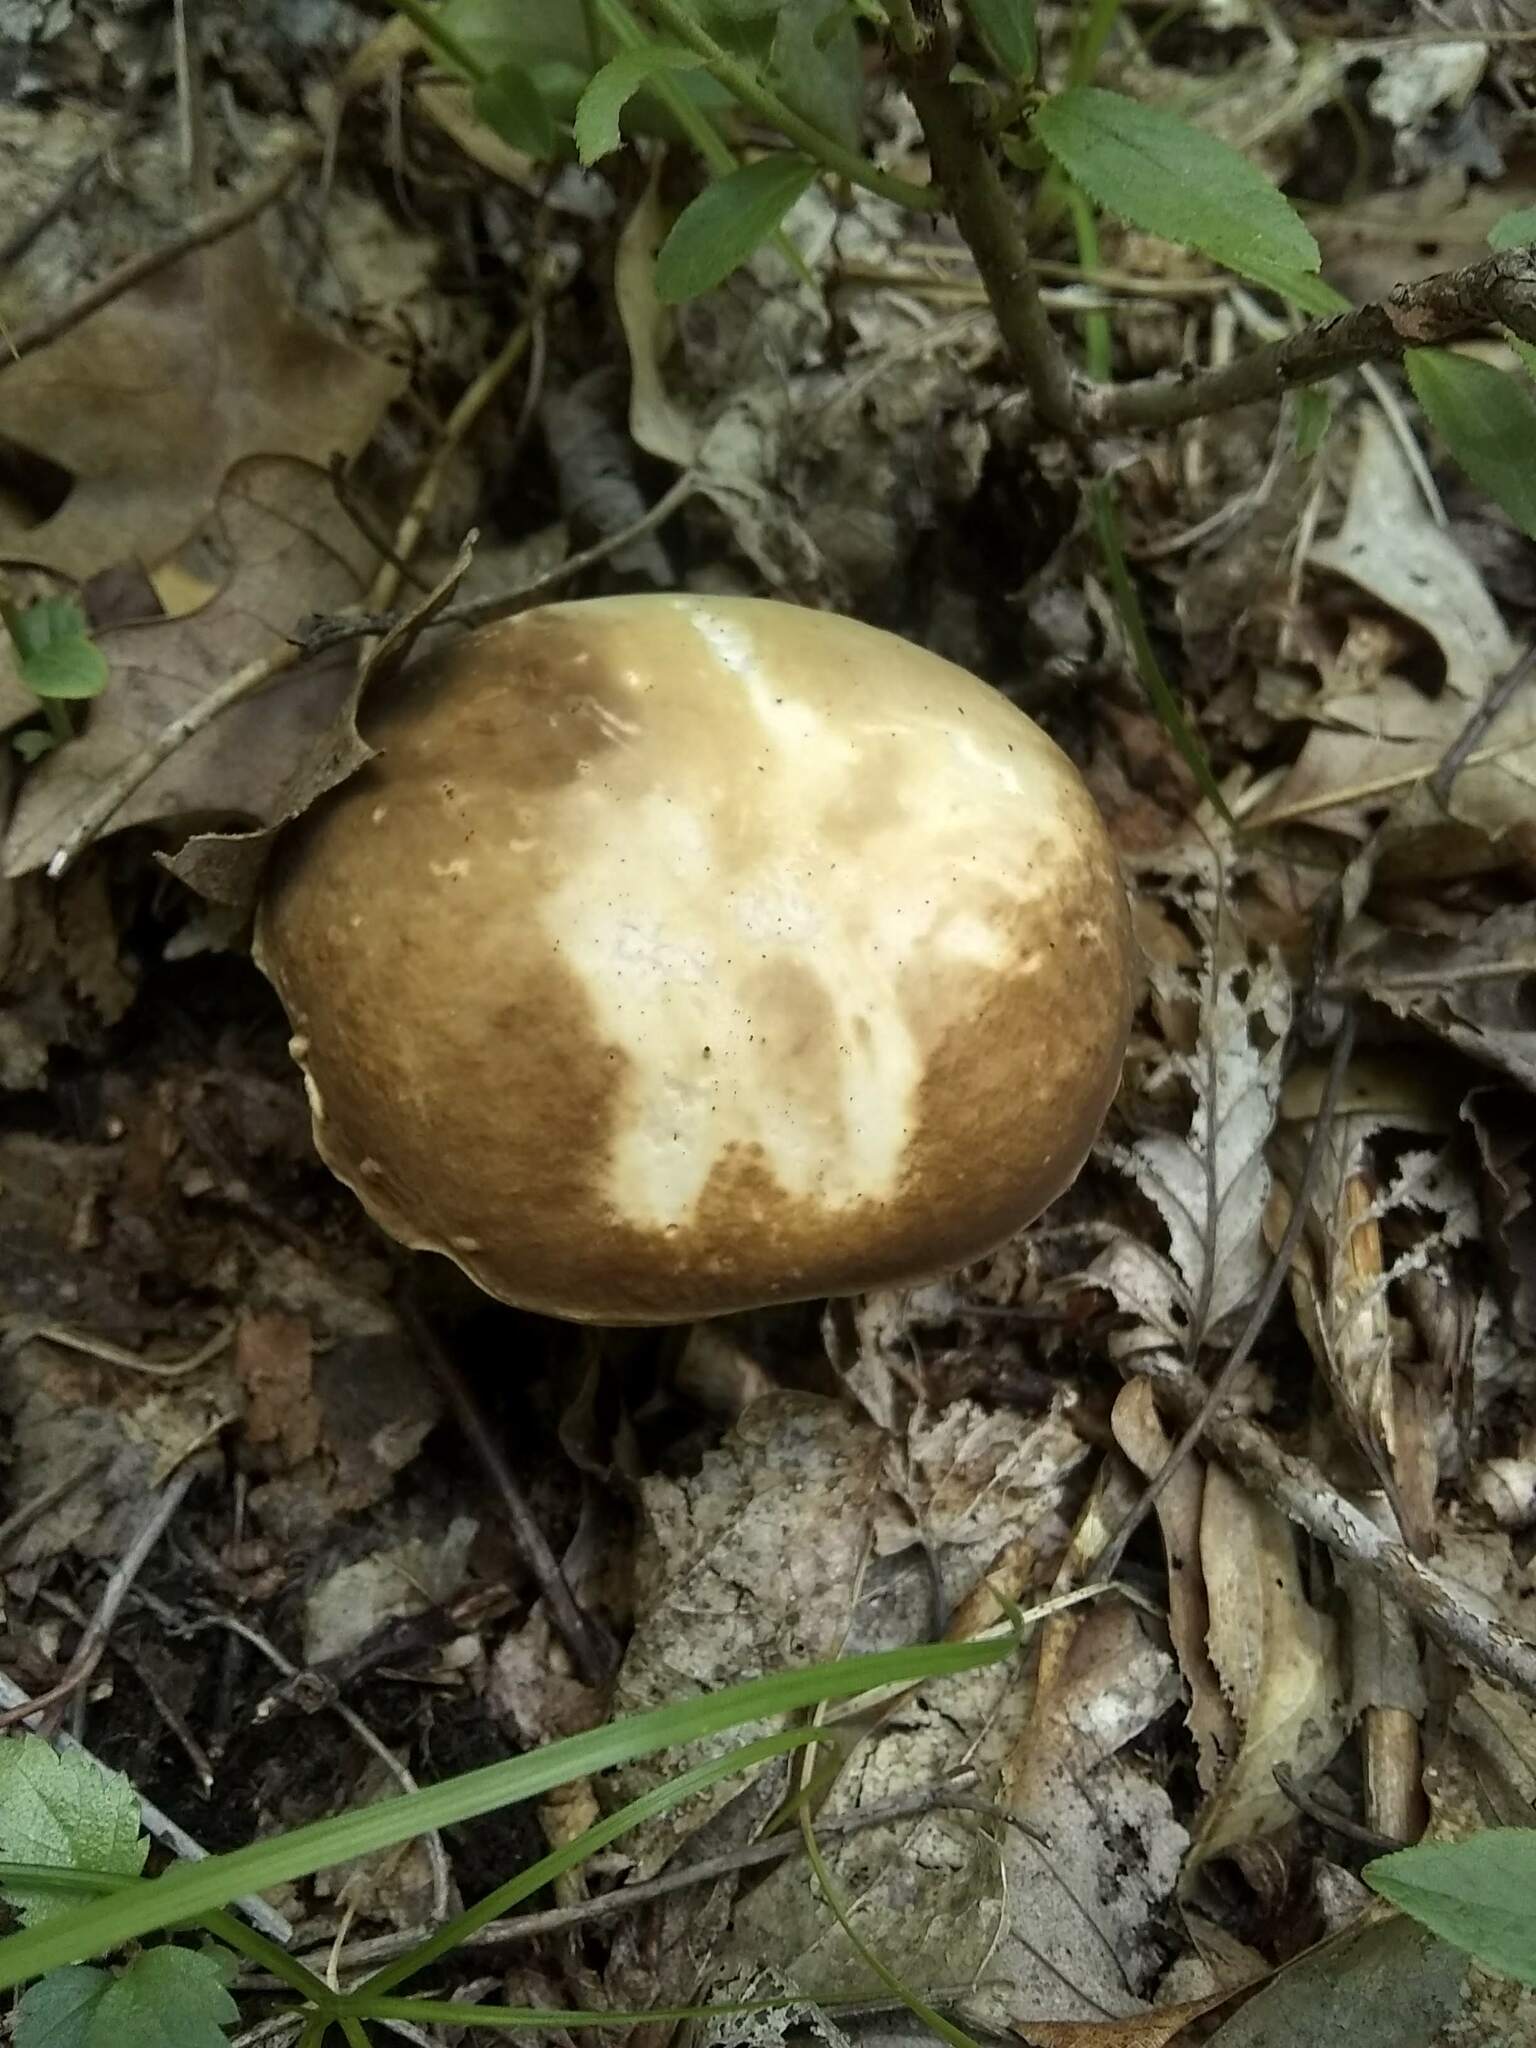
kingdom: Fungi
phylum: Basidiomycota
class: Agaricomycetes
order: Boletales
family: Boletaceae
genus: Xanthoconium
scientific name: Xanthoconium affine
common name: Spotted bolete
